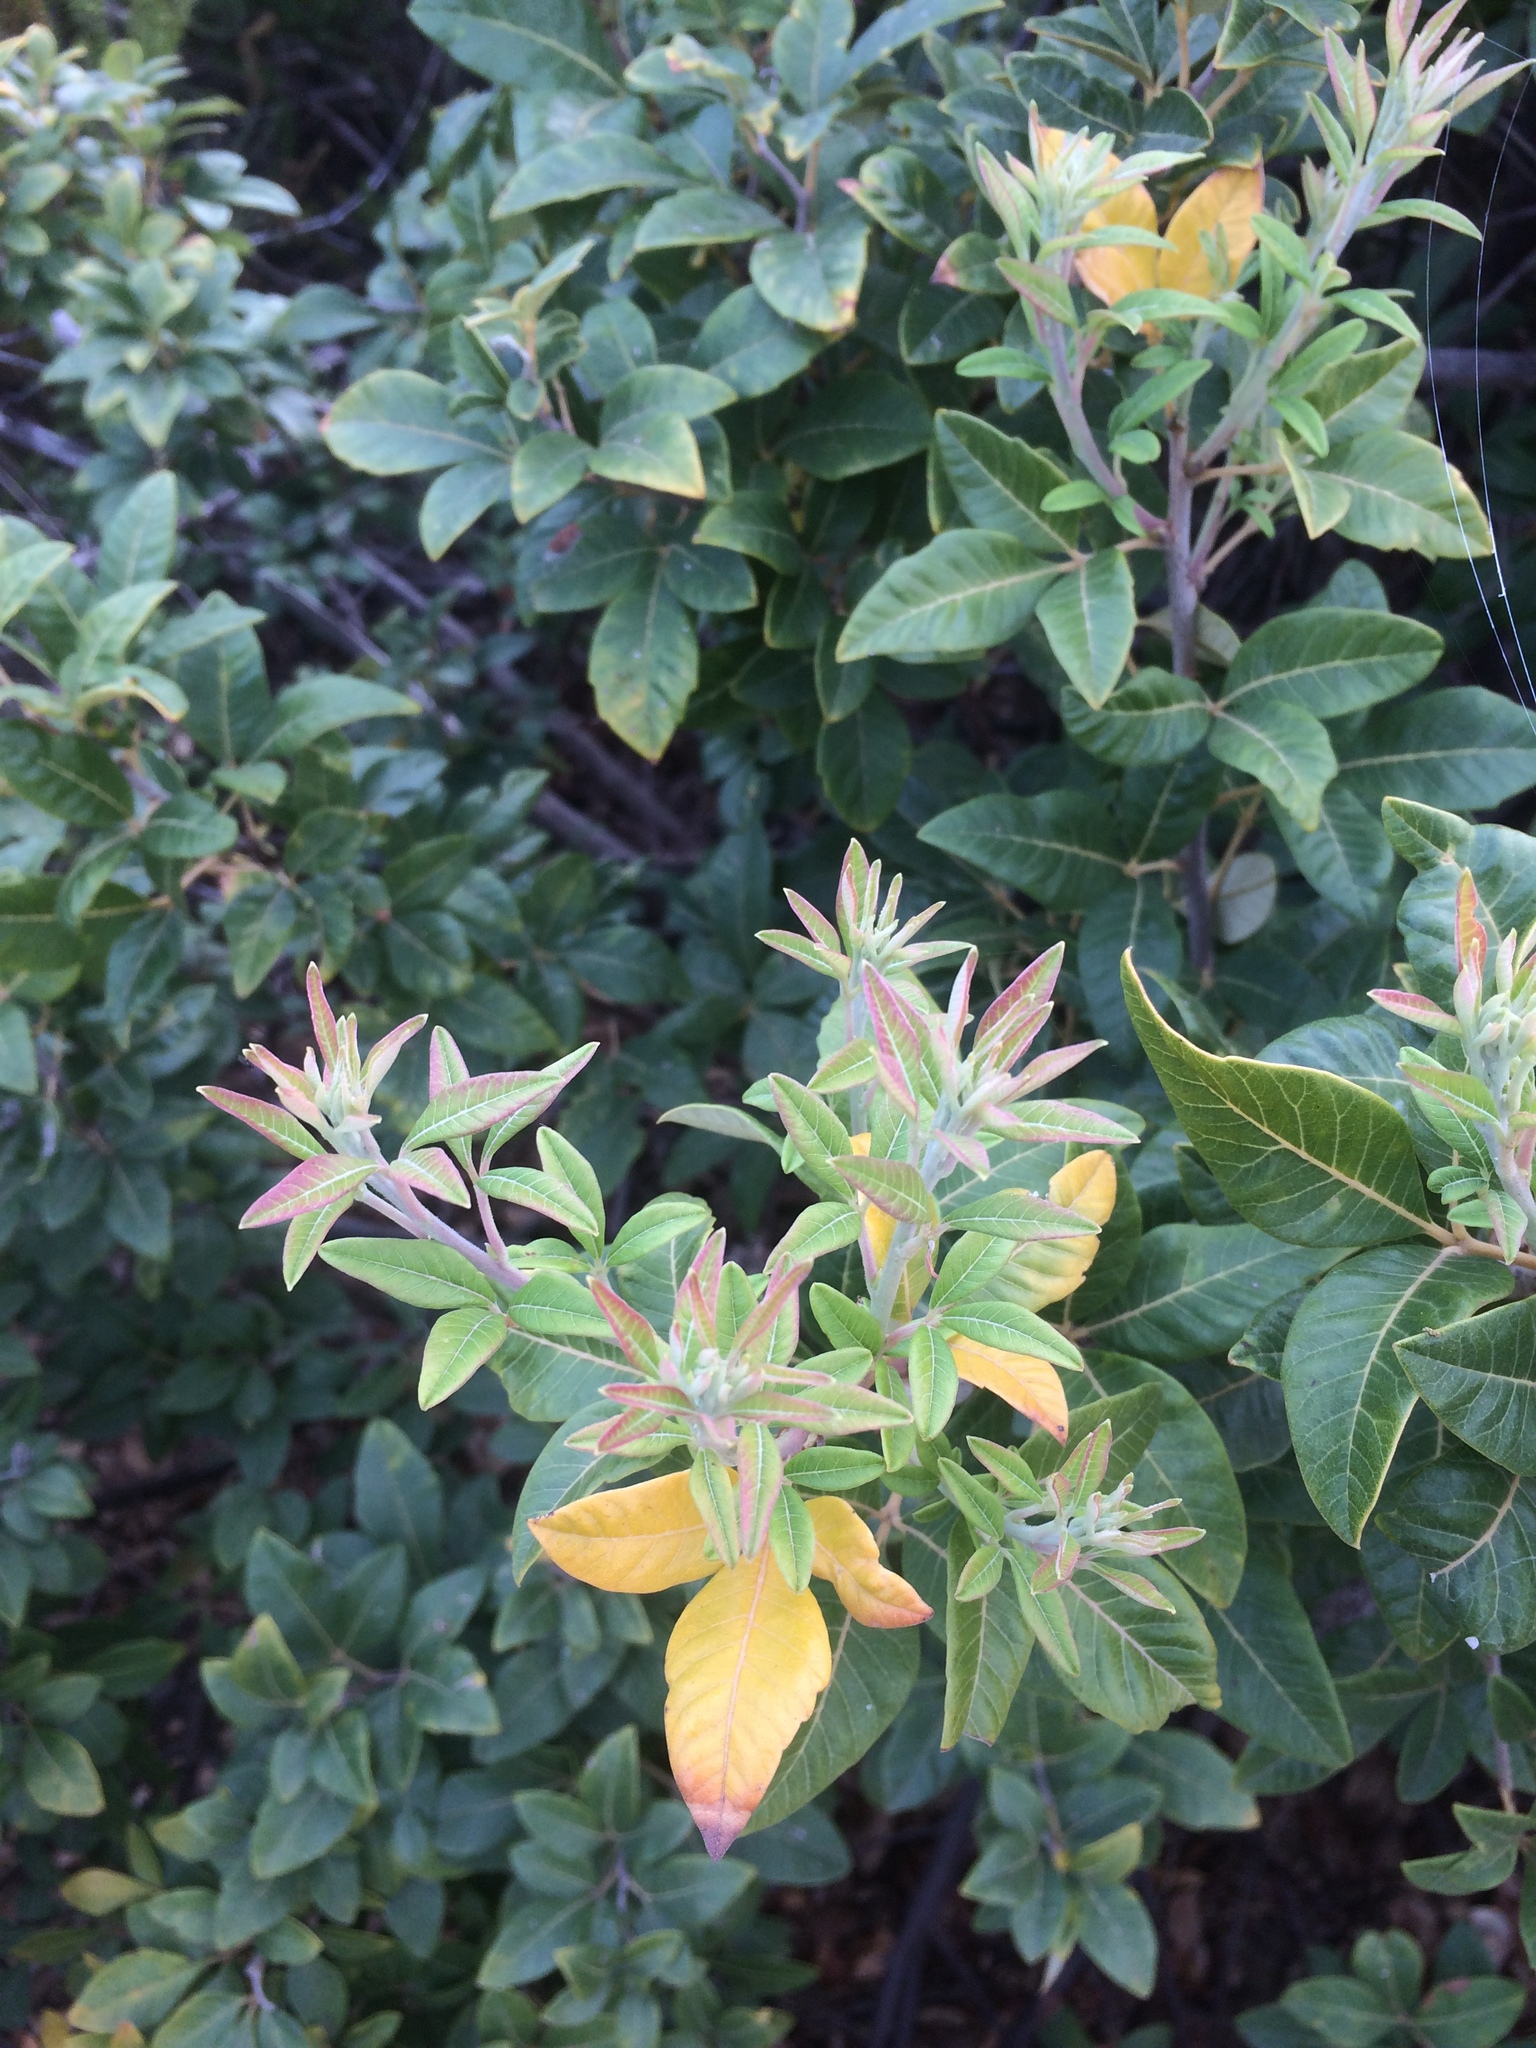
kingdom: Plantae
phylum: Tracheophyta
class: Magnoliopsida
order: Sapindales
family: Anacardiaceae
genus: Searsia
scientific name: Searsia tomentosa
